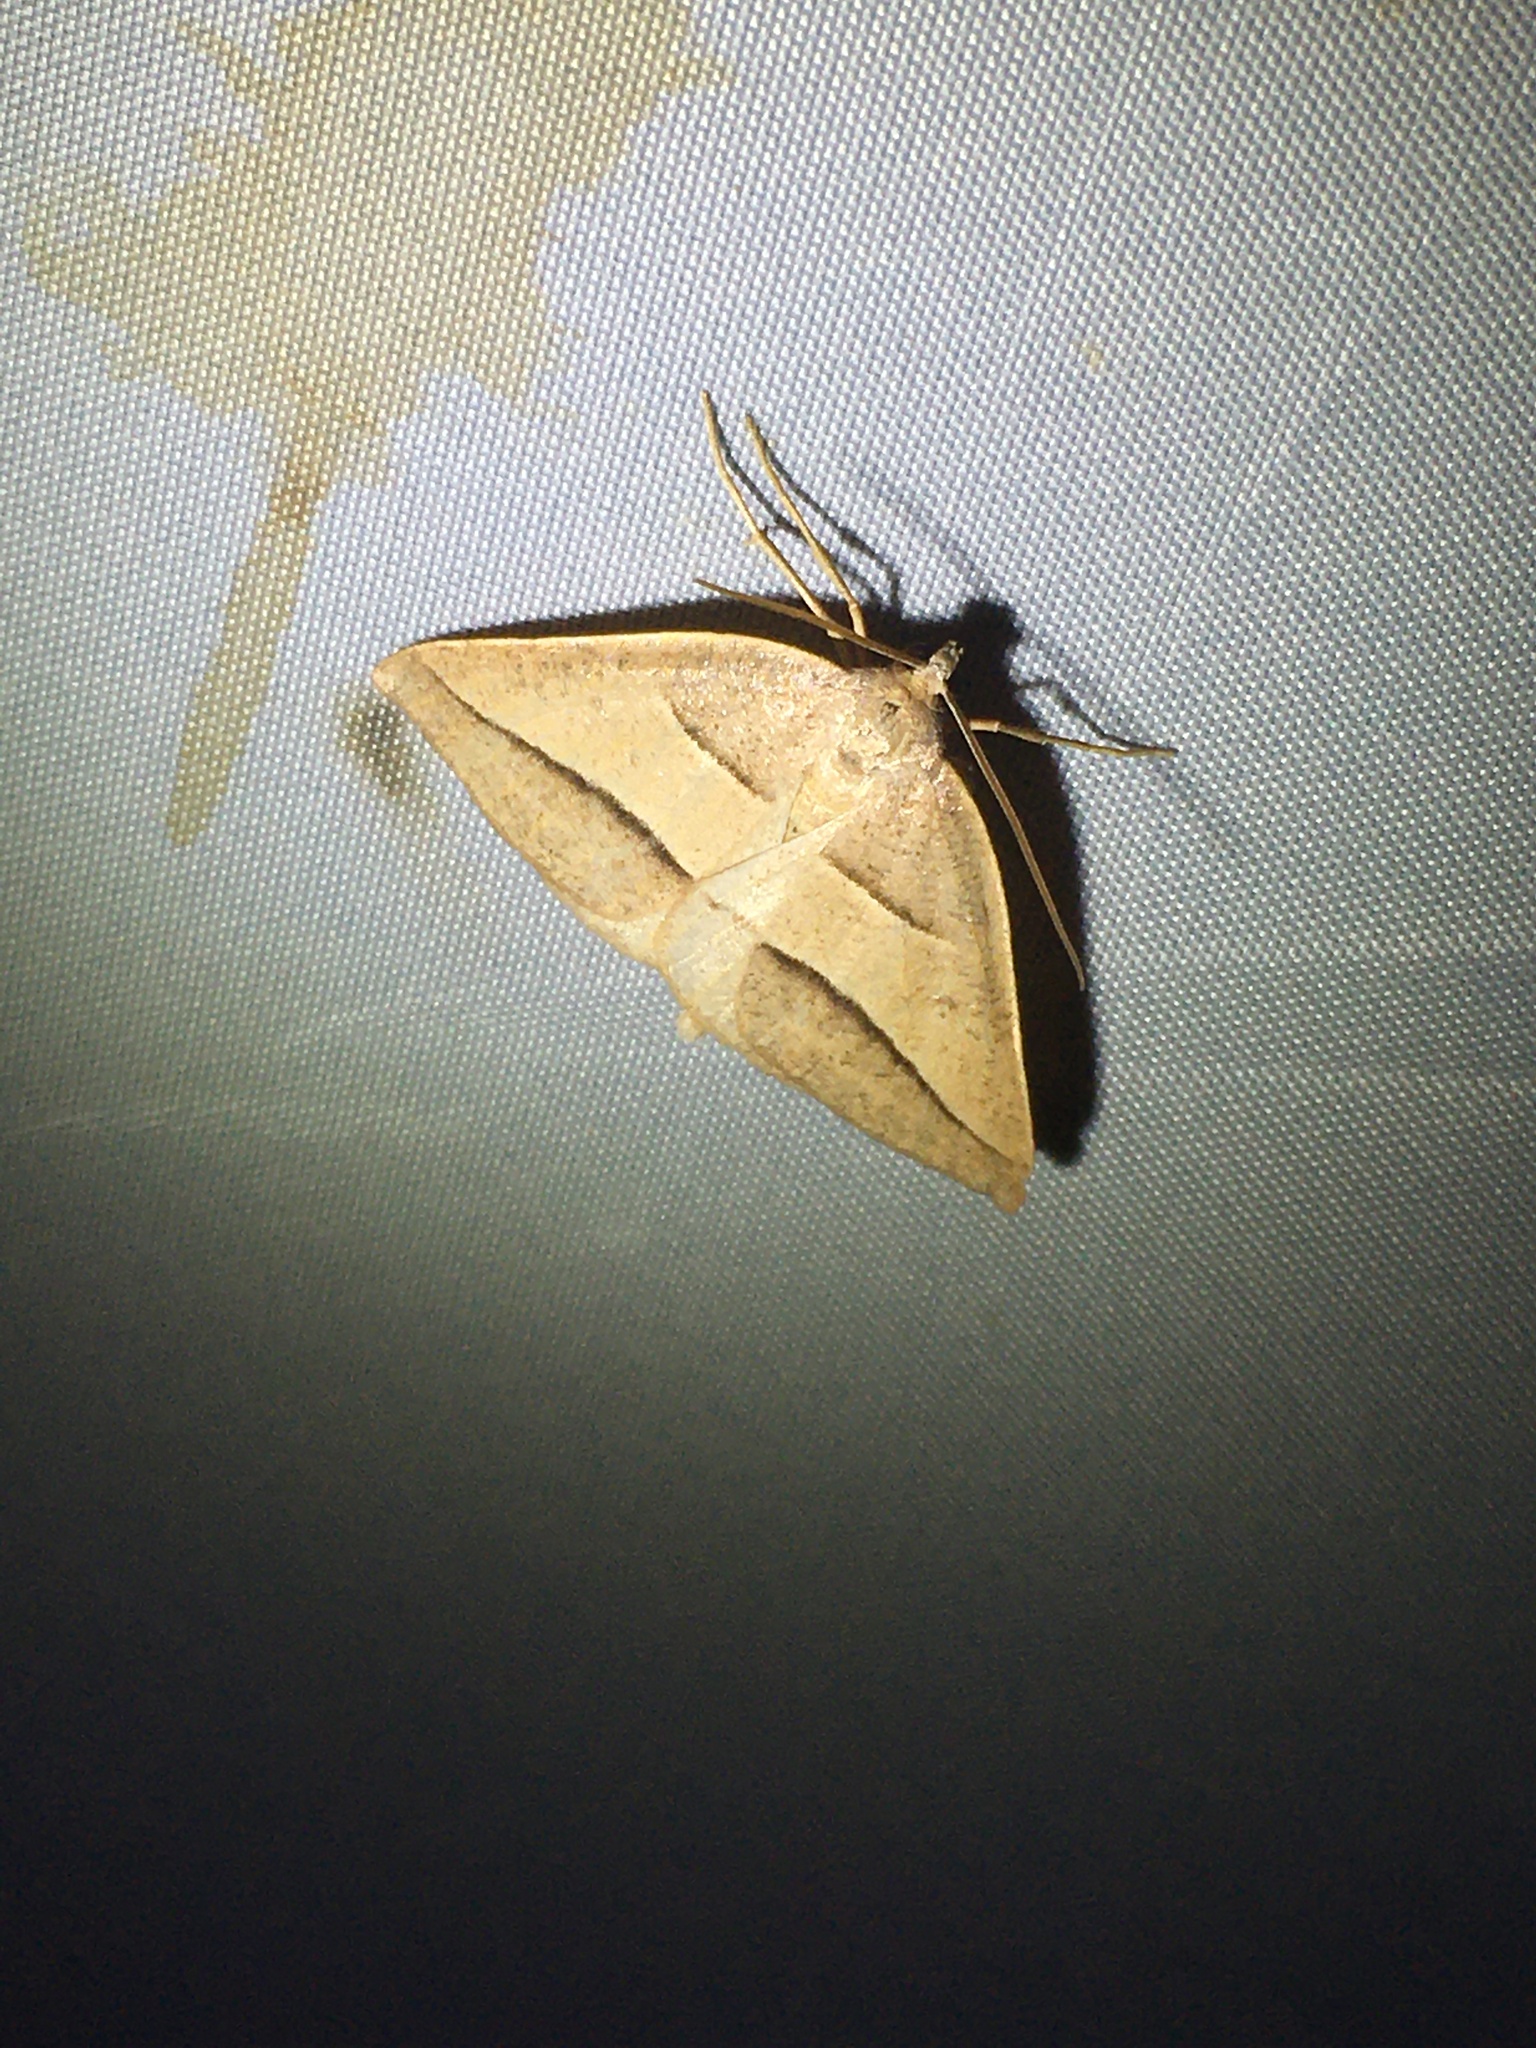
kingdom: Animalia
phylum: Arthropoda
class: Insecta
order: Lepidoptera
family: Pterophoridae
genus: Pterophorus
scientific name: Pterophorus Petrophora divisata
